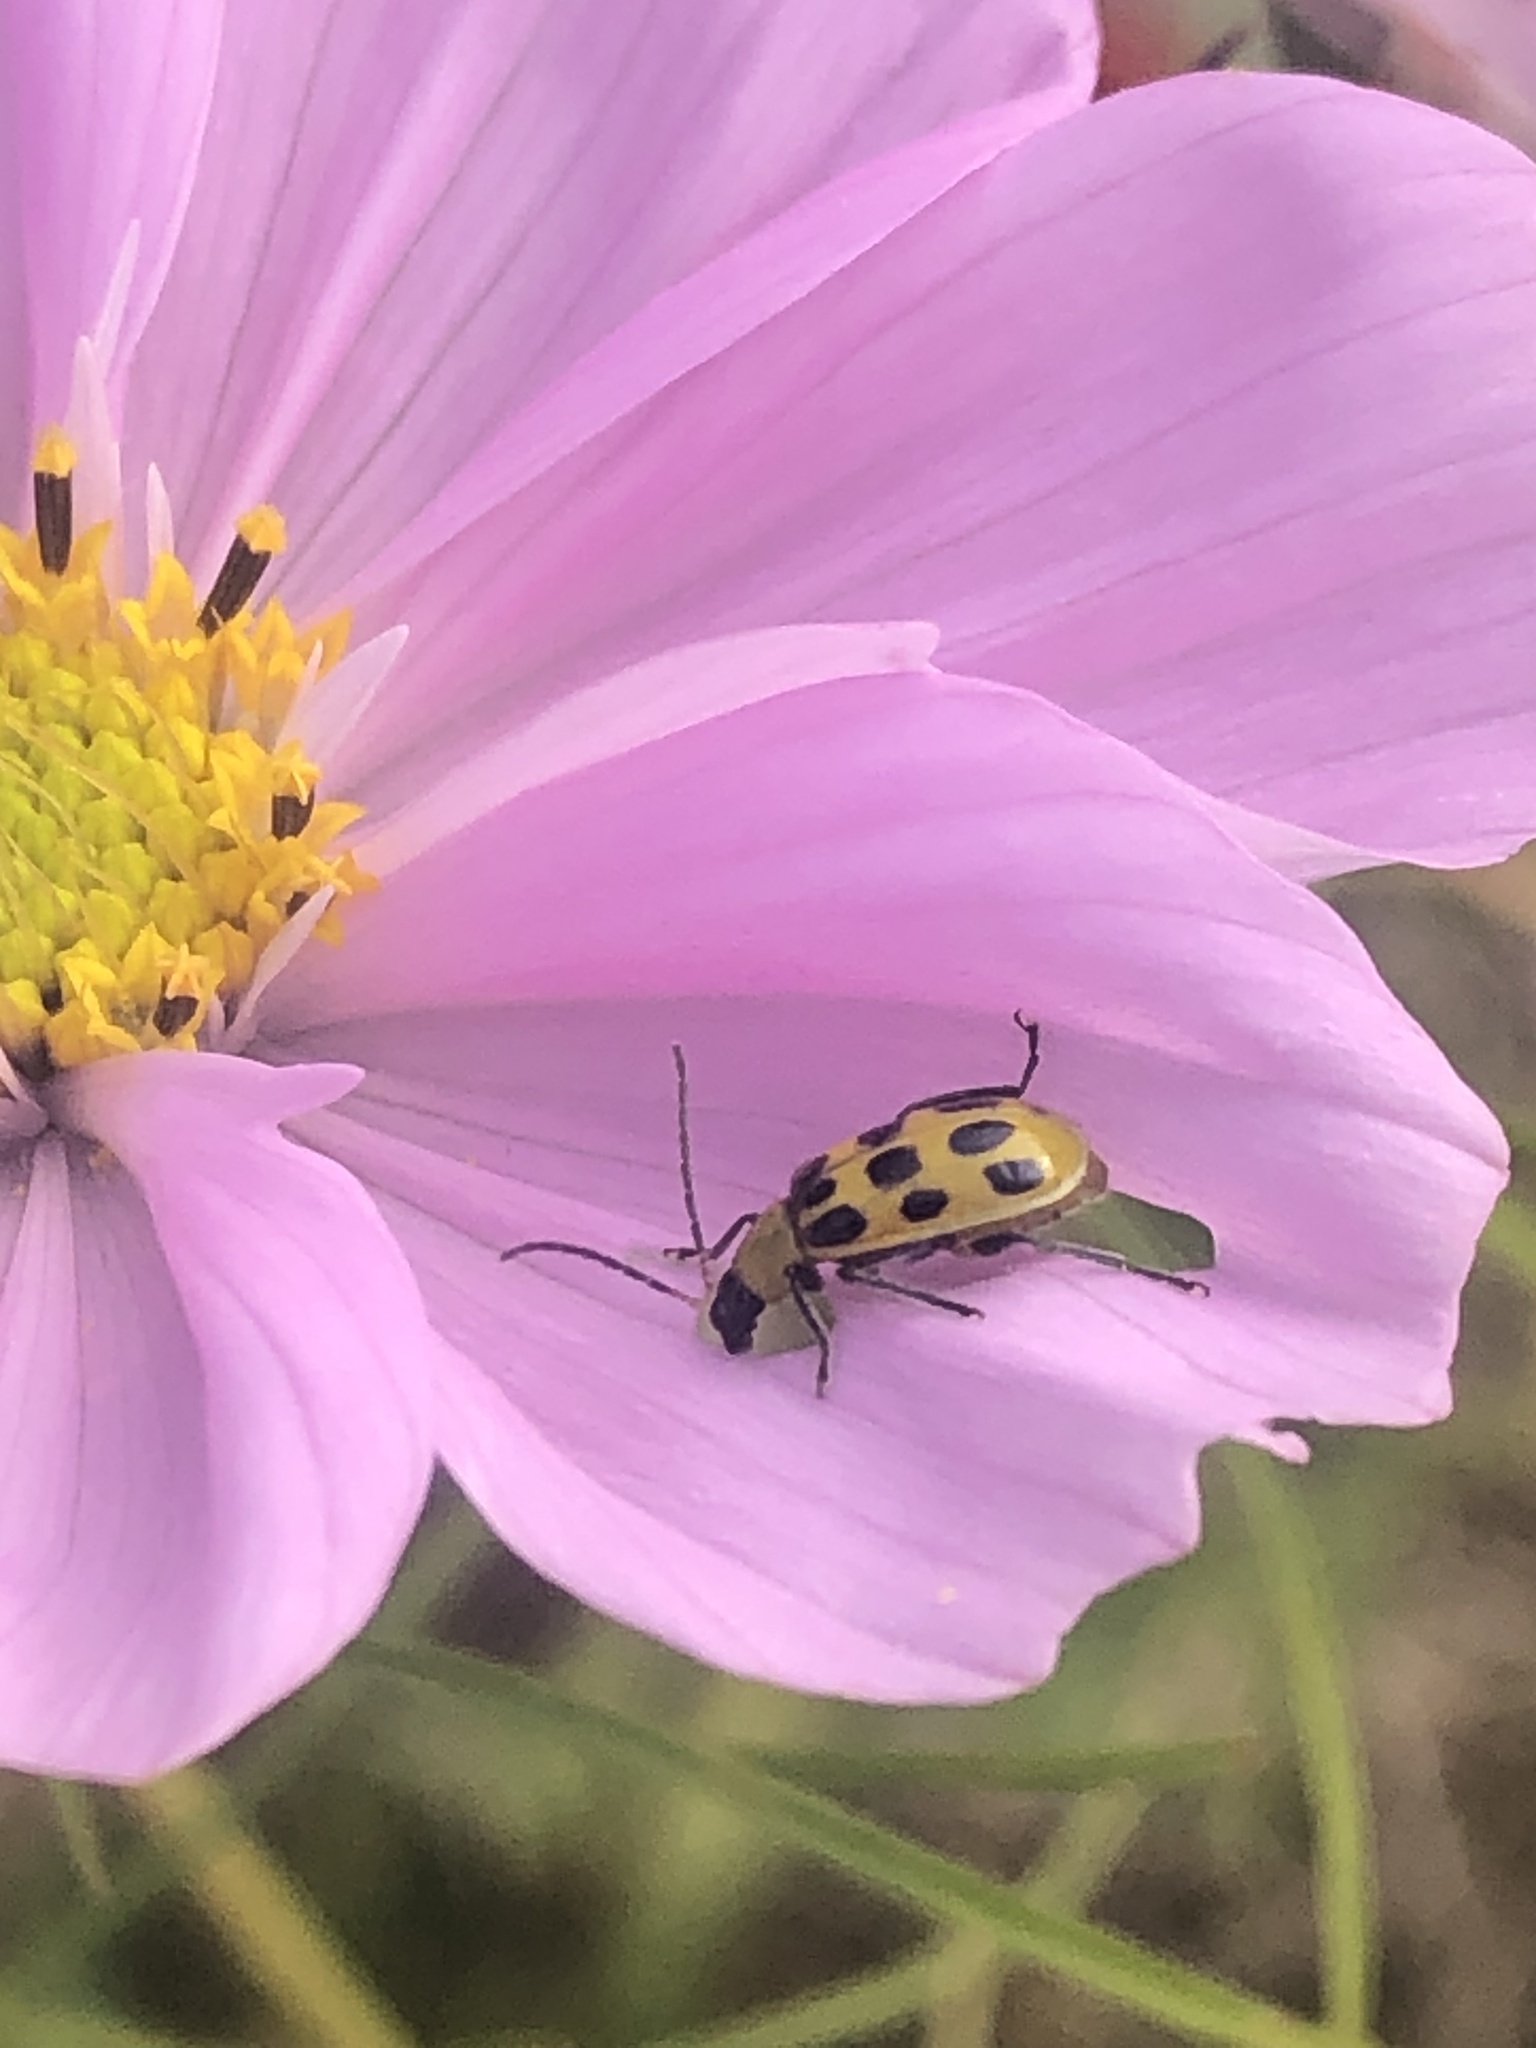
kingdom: Animalia
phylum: Arthropoda
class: Insecta
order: Coleoptera
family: Chrysomelidae
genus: Diabrotica
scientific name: Diabrotica undecimpunctata
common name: Spotted cucumber beetle
